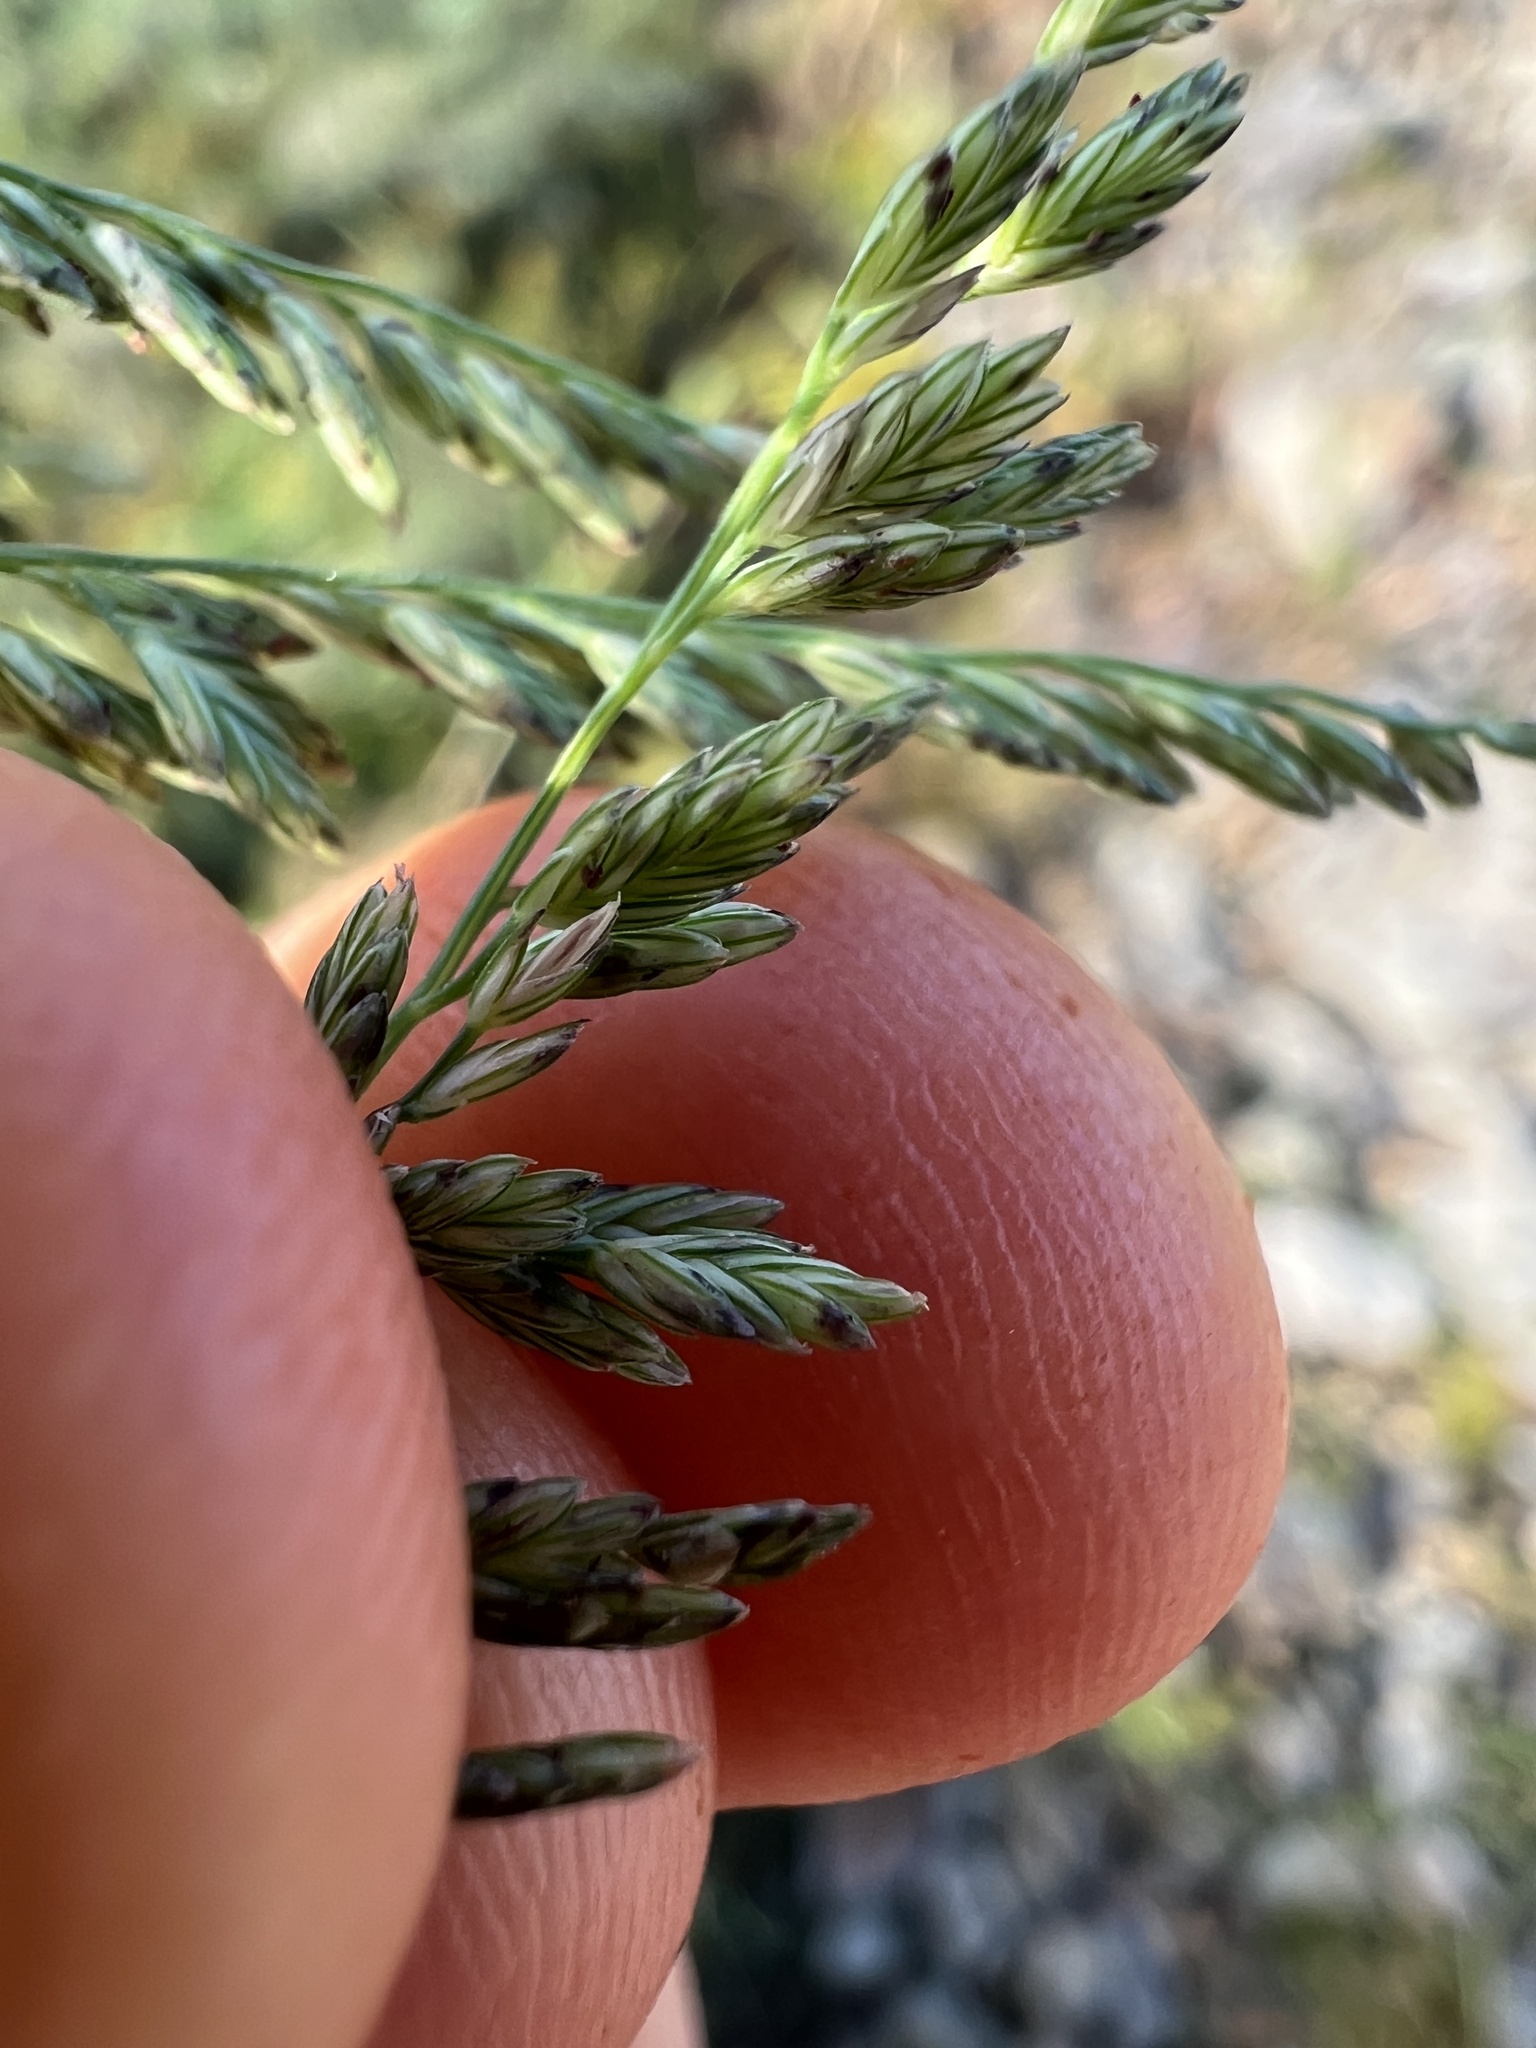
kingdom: Plantae
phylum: Tracheophyta
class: Liliopsida
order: Poales
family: Poaceae
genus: Leptochloa
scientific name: Leptochloa panicoides
